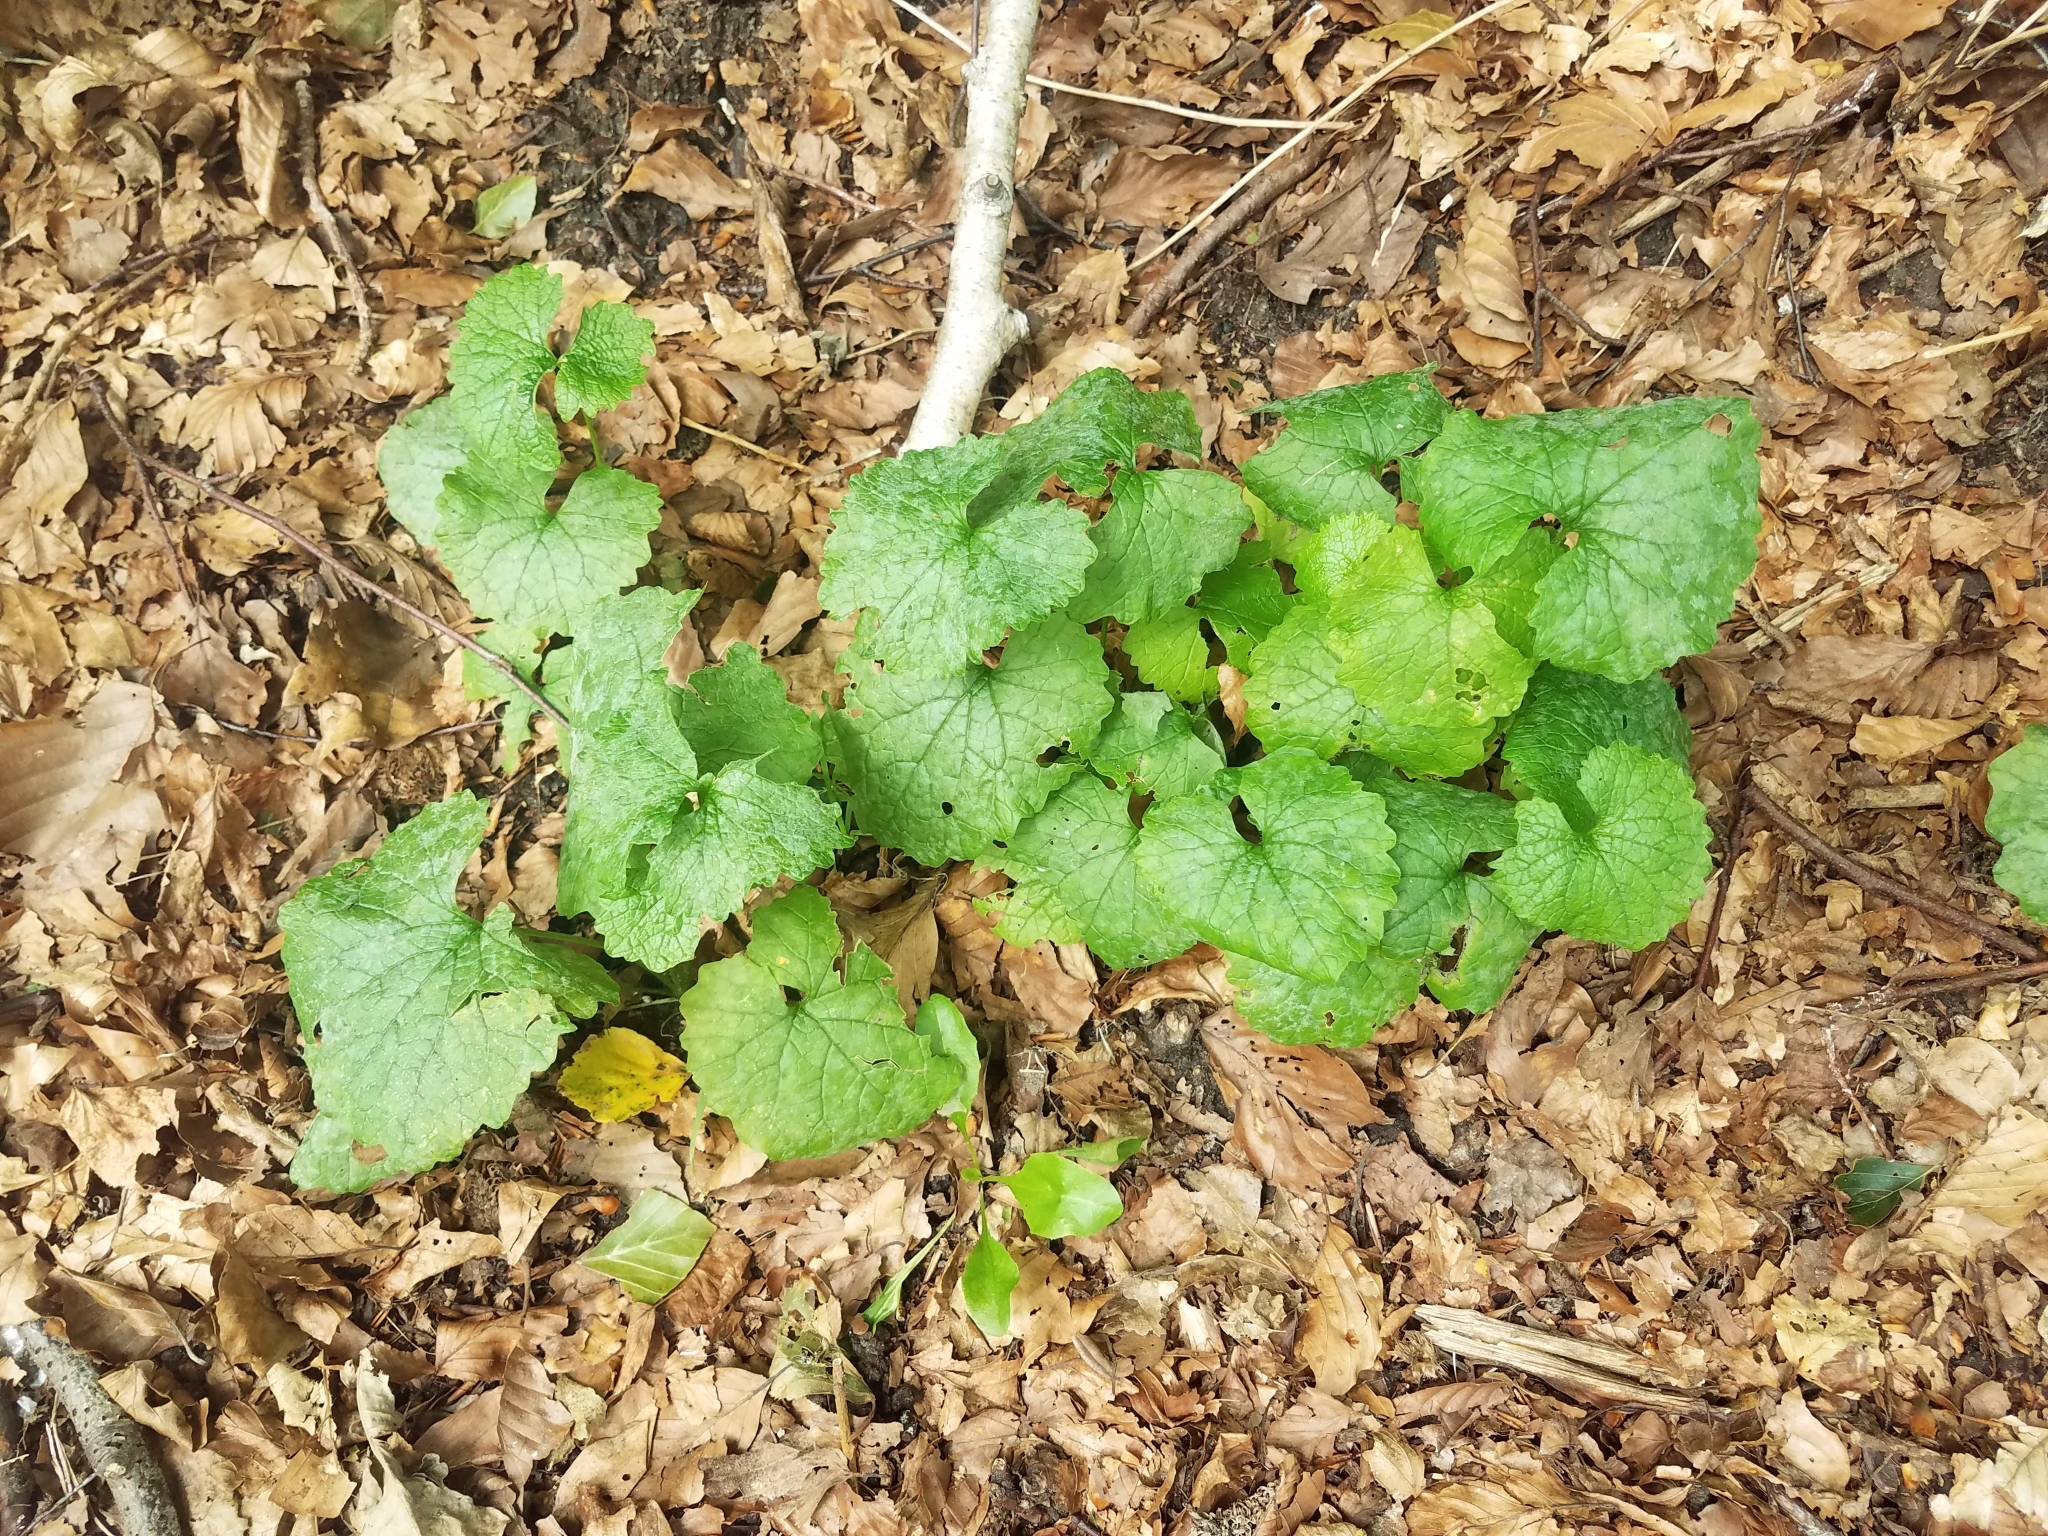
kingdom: Plantae
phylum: Tracheophyta
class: Magnoliopsida
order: Brassicales
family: Brassicaceae
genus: Alliaria
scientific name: Alliaria petiolata
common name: Garlic mustard
